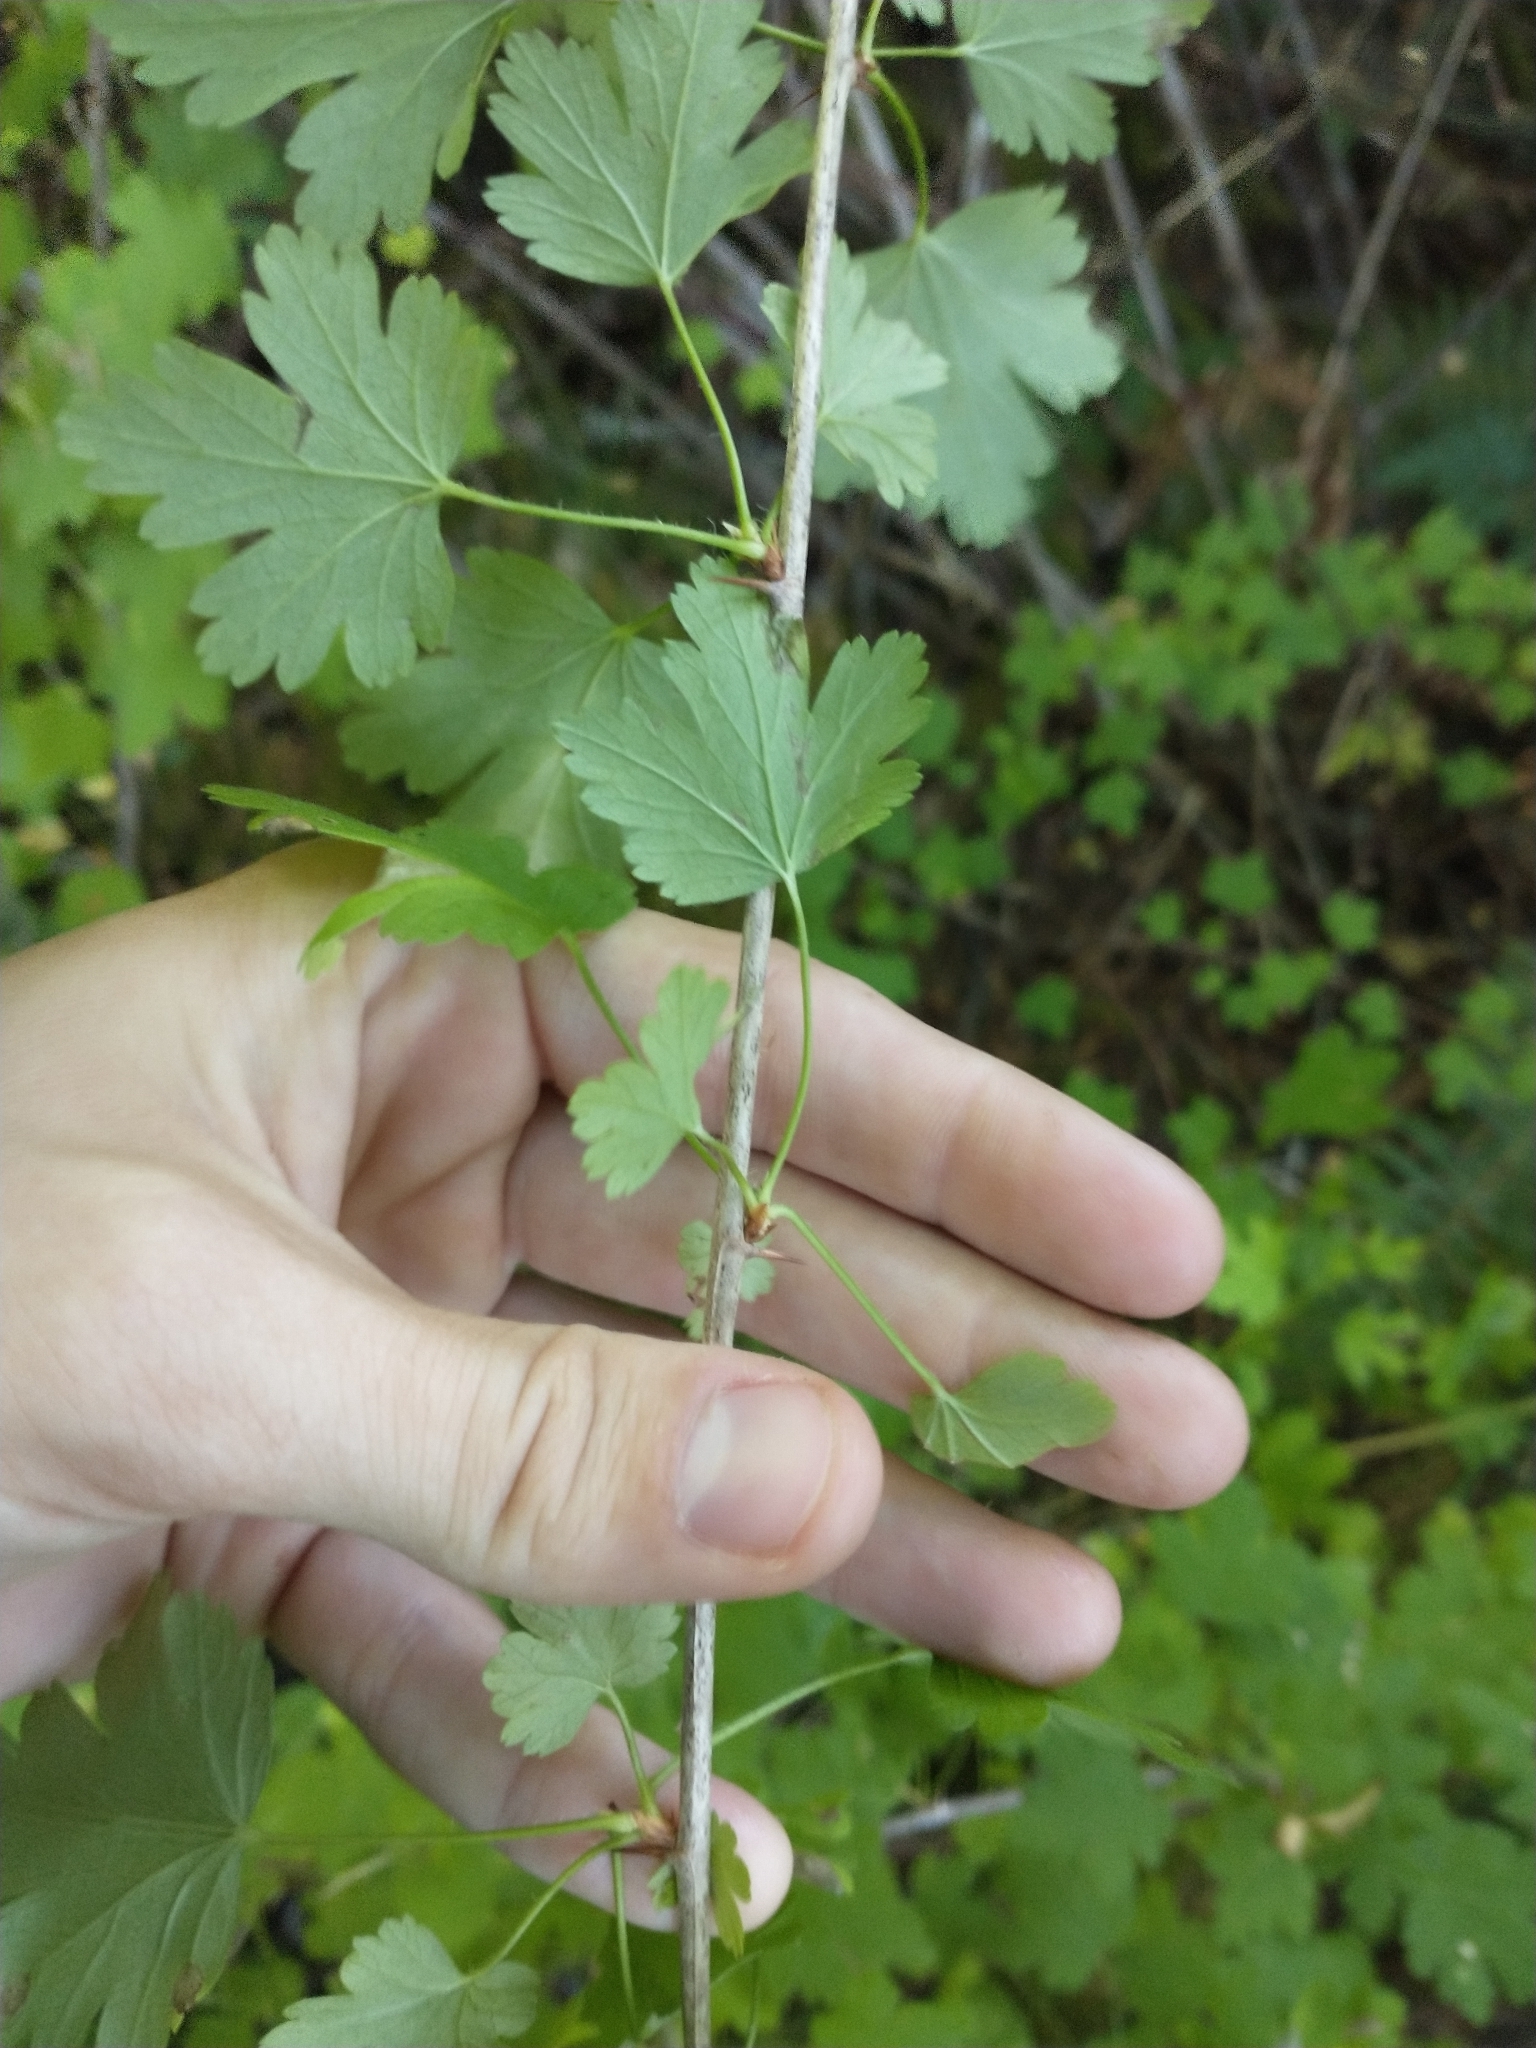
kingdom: Plantae
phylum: Tracheophyta
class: Magnoliopsida
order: Saxifragales
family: Grossulariaceae
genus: Ribes
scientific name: Ribes divaricatum
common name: Wild black gooseberry
